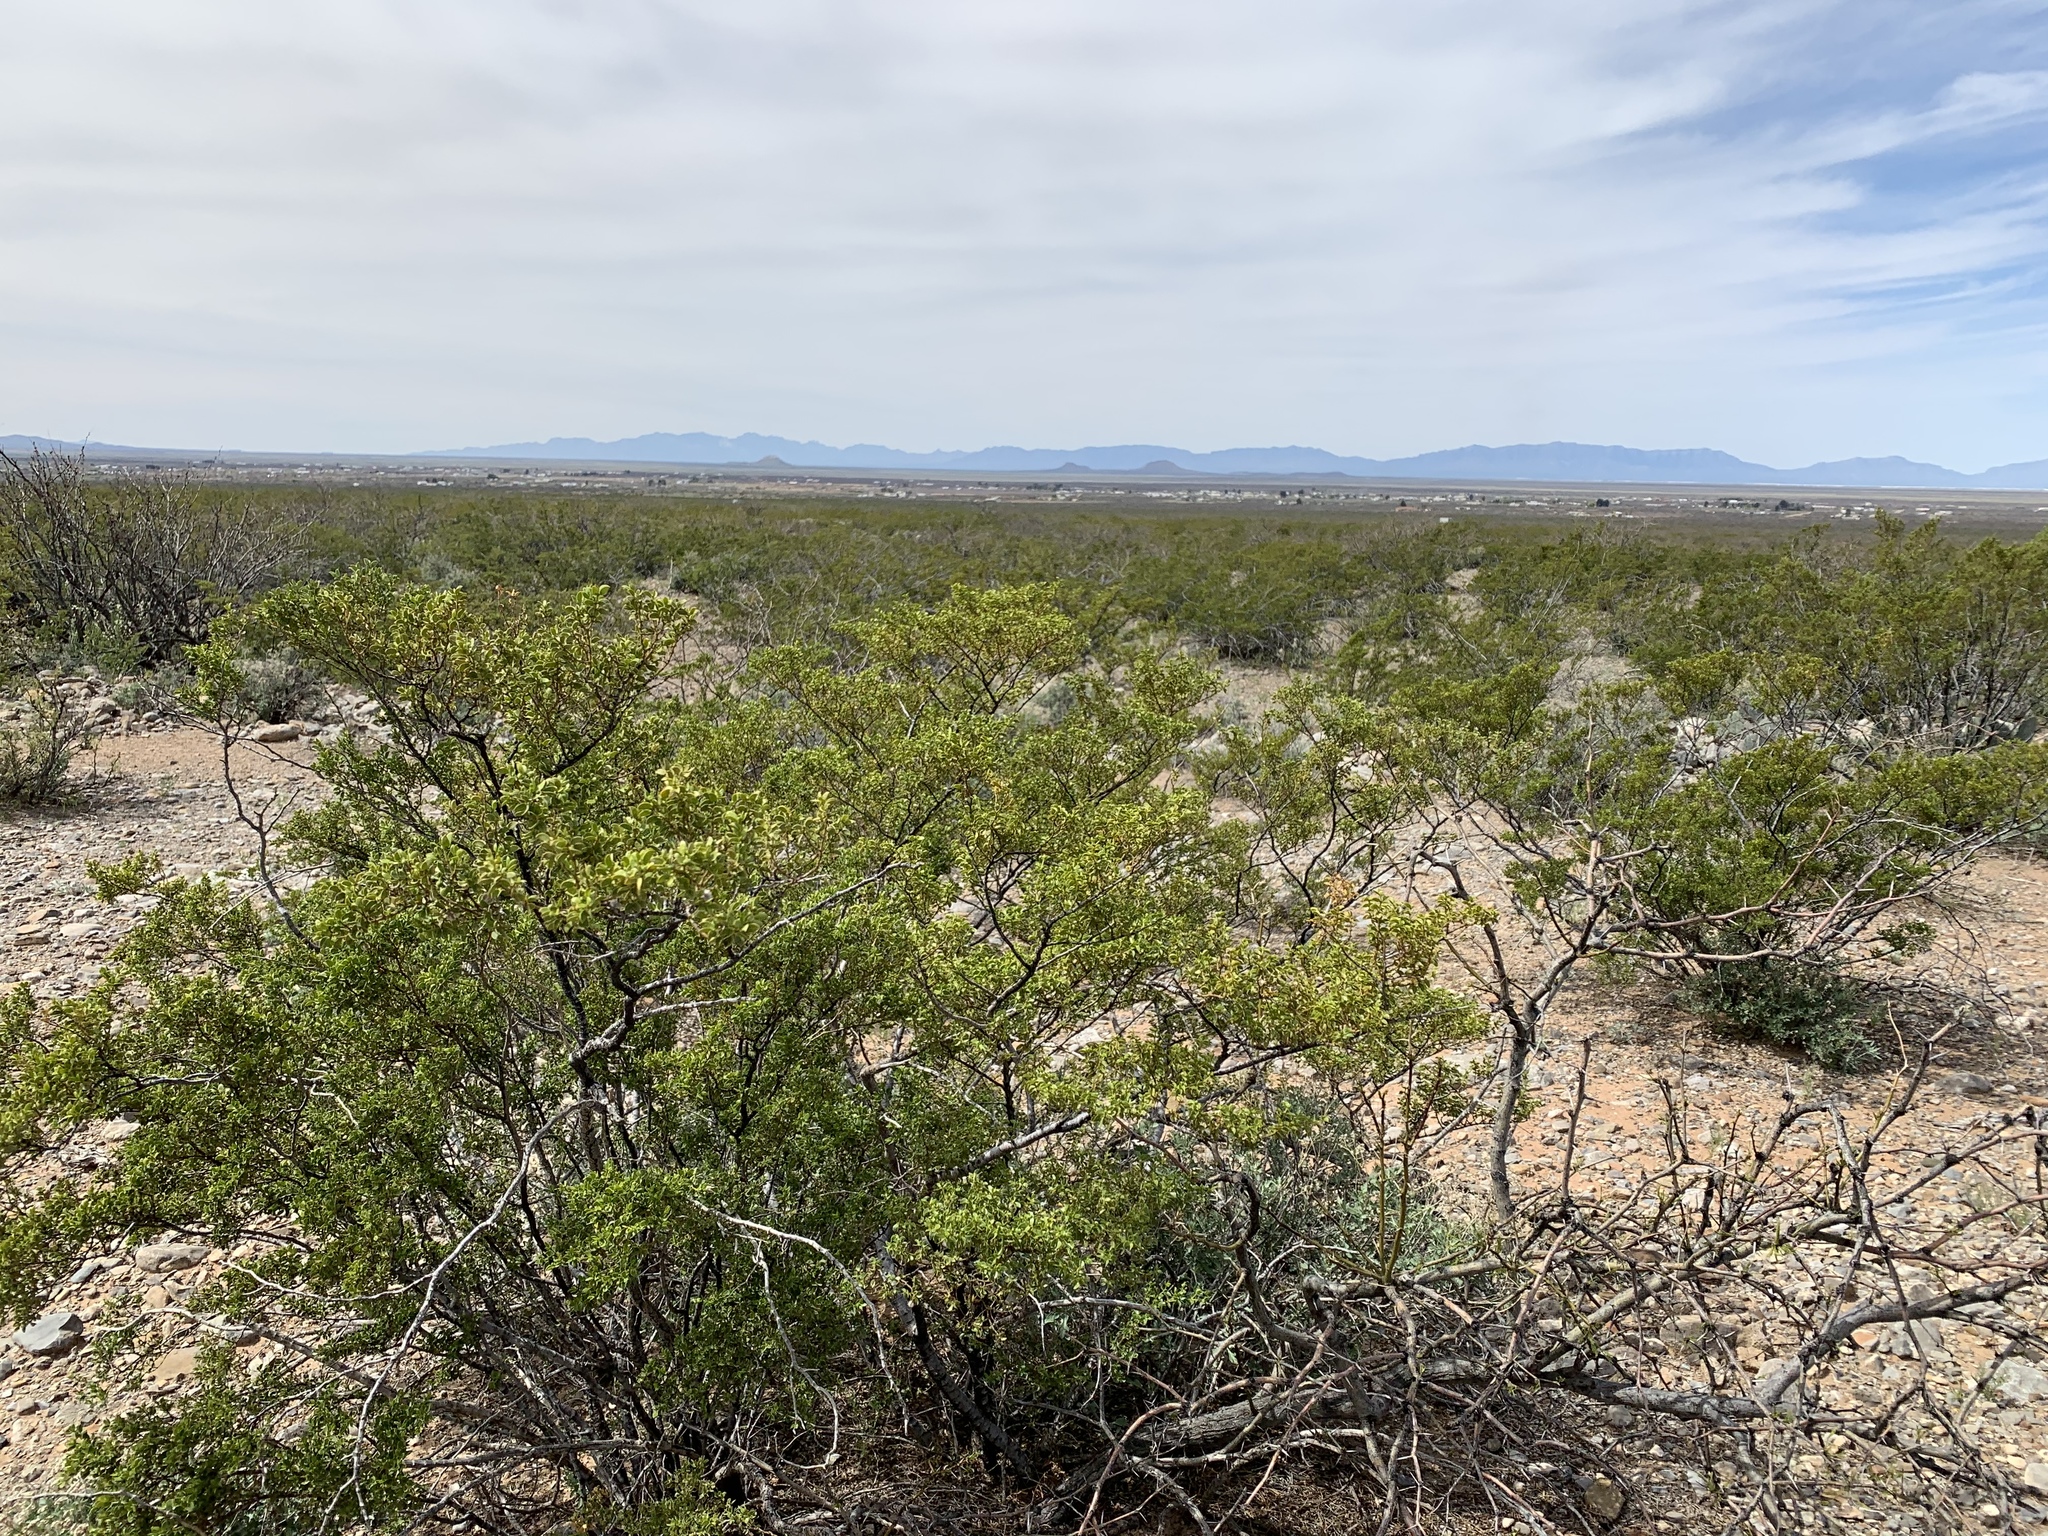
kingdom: Plantae
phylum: Tracheophyta
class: Magnoliopsida
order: Zygophyllales
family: Zygophyllaceae
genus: Larrea
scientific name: Larrea tridentata
